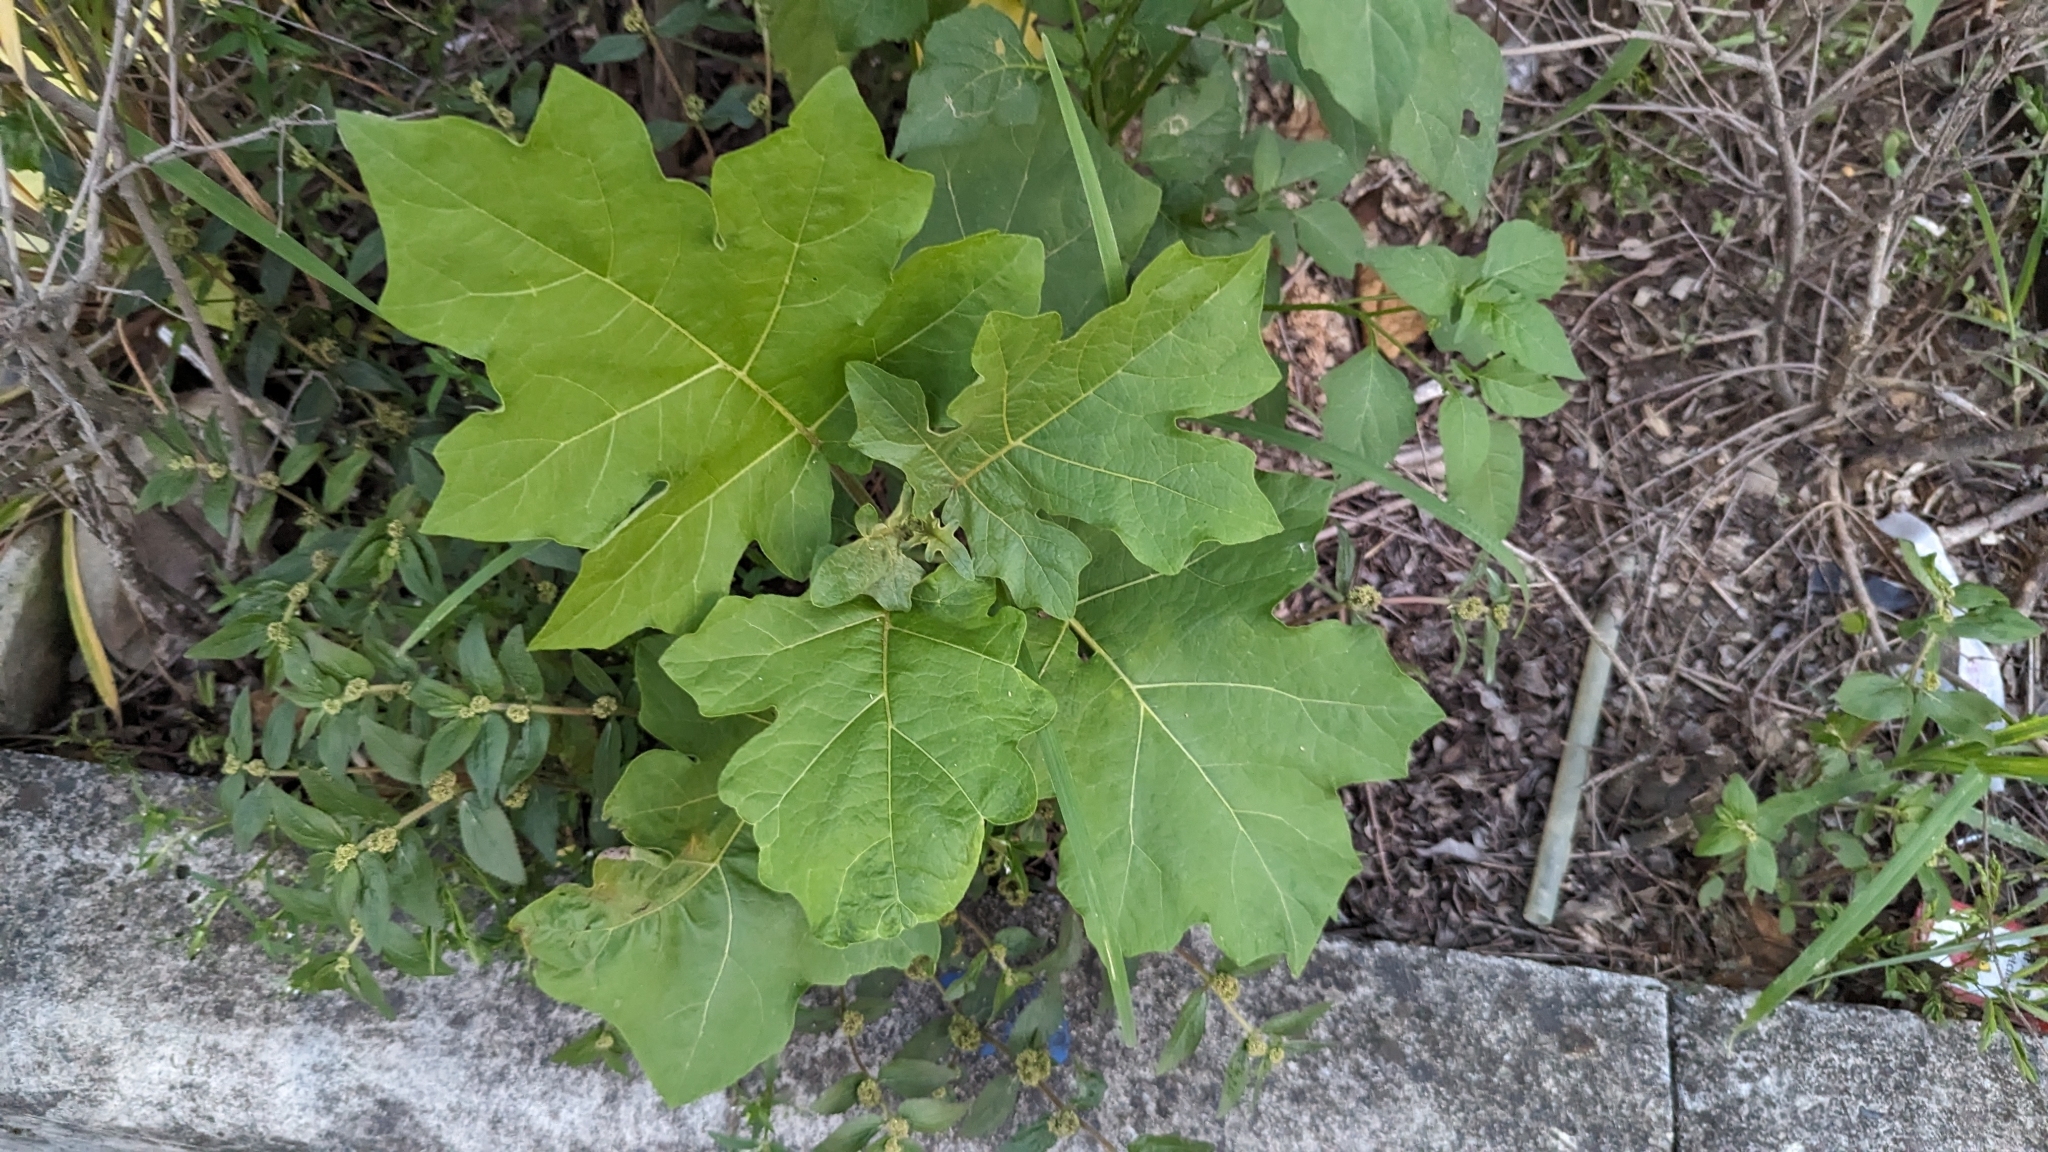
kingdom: Plantae
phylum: Tracheophyta
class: Magnoliopsida
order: Solanales
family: Solanaceae
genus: Solanum
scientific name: Solanum torvum
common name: Turkey berry
